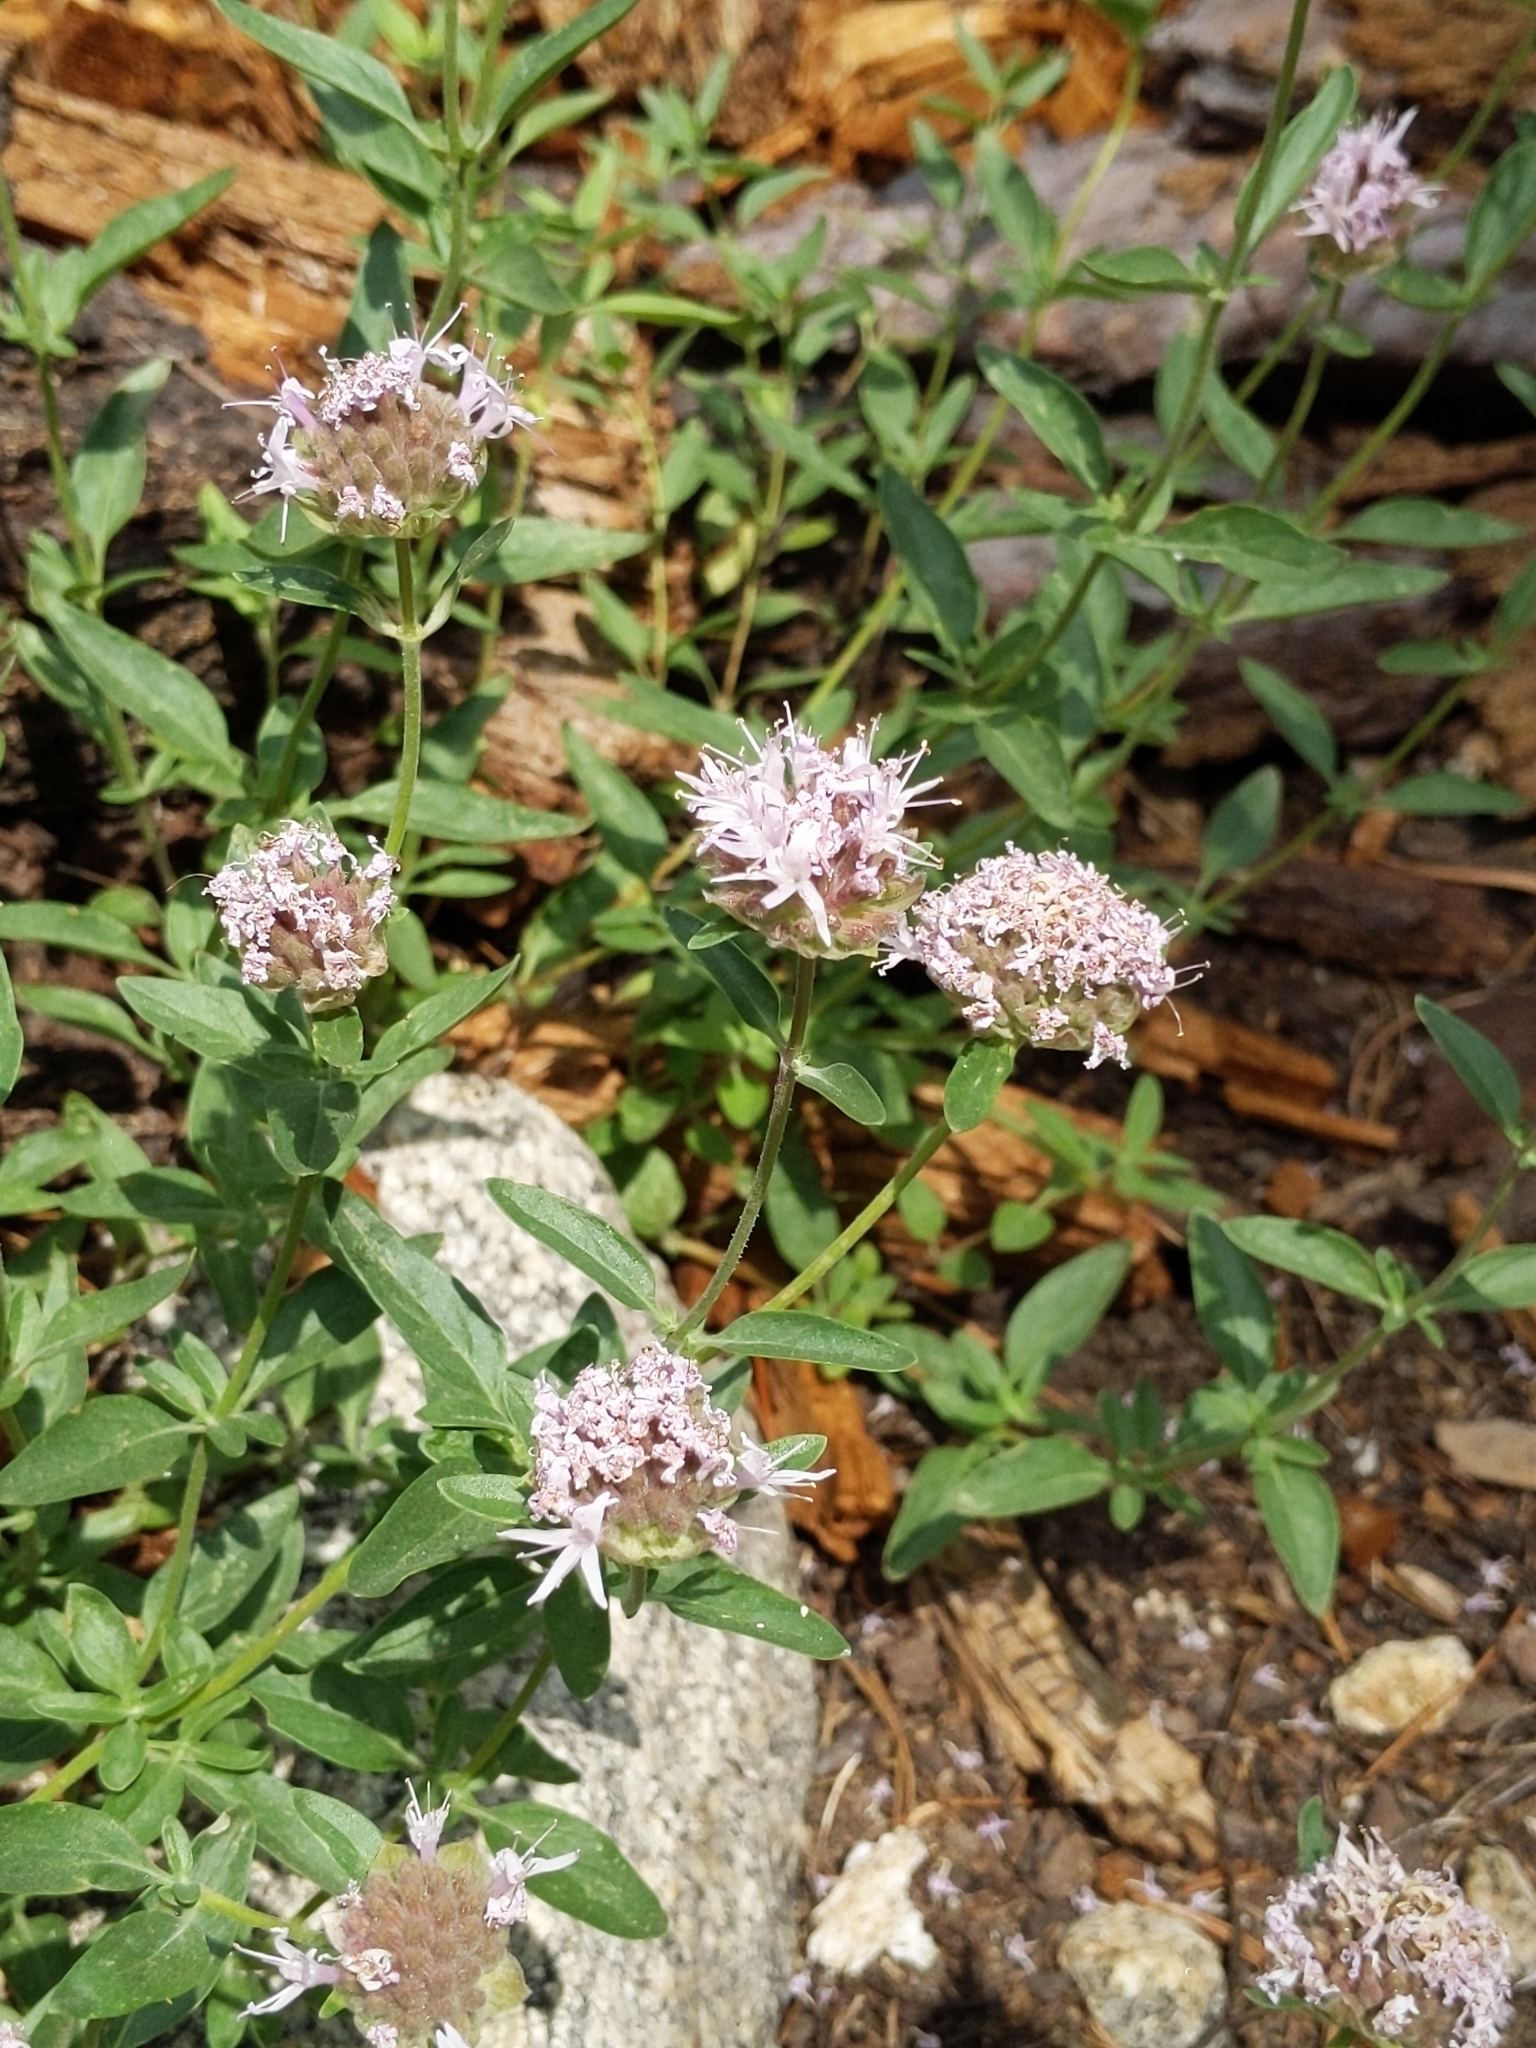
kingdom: Plantae
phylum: Tracheophyta
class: Magnoliopsida
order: Lamiales
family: Lamiaceae
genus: Monardella
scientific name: Monardella odoratissima
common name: Pacific monardella
